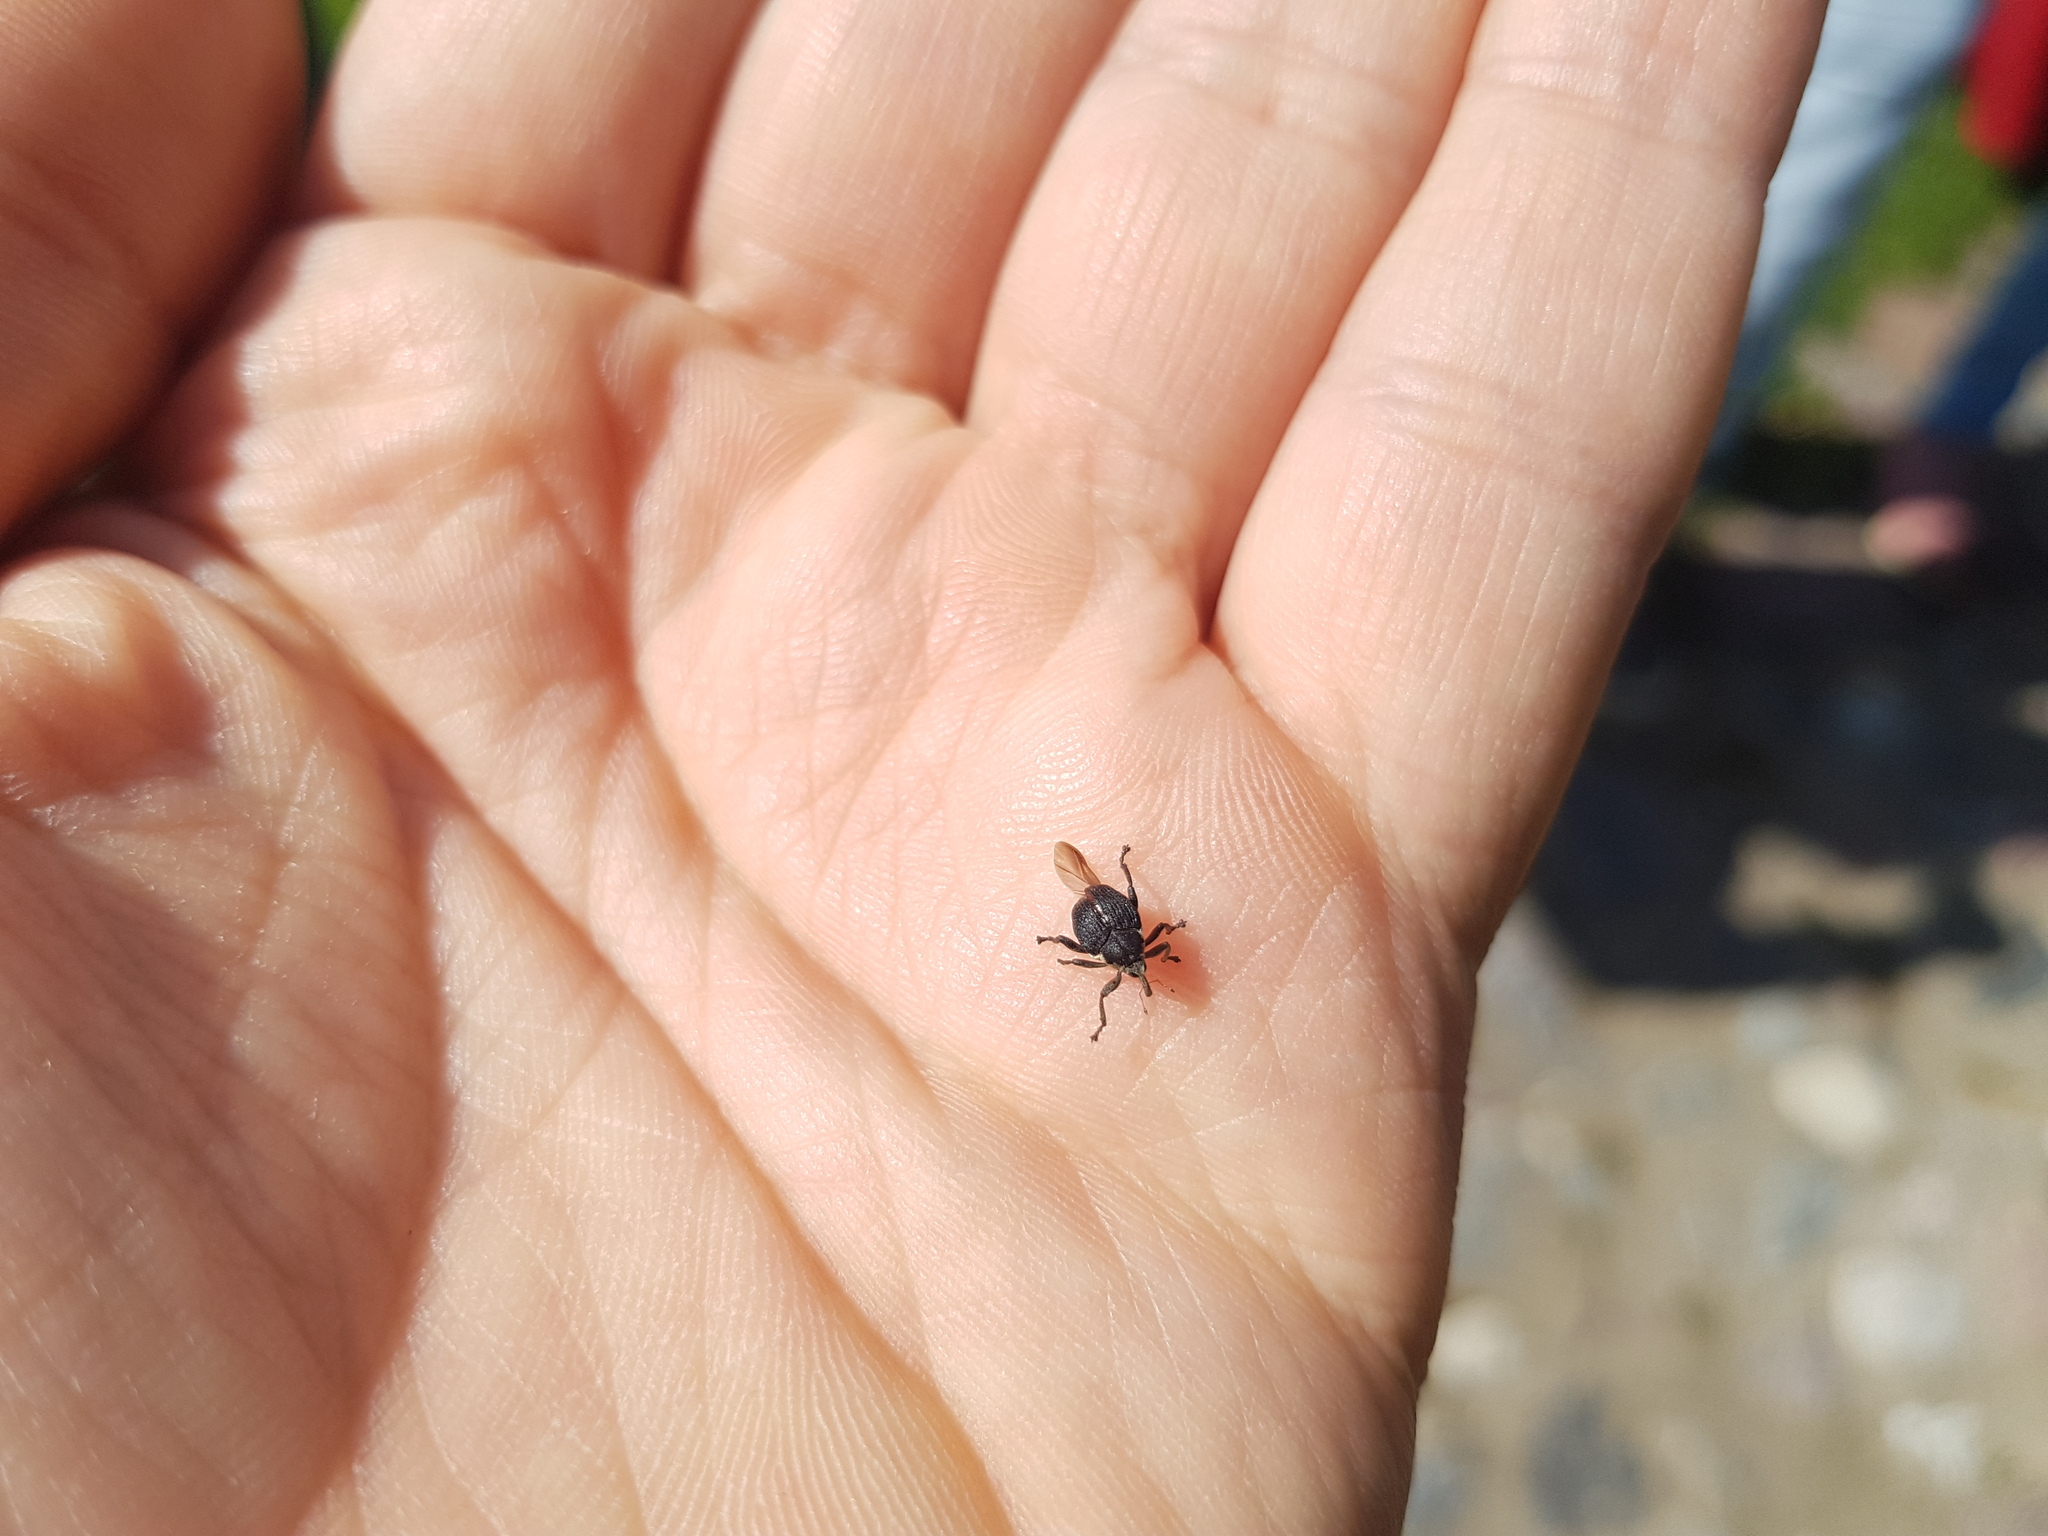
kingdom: Animalia
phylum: Arthropoda
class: Insecta
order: Coleoptera
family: Curculionidae
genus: Mononychus
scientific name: Mononychus punctumalbum
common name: Iris weevil
